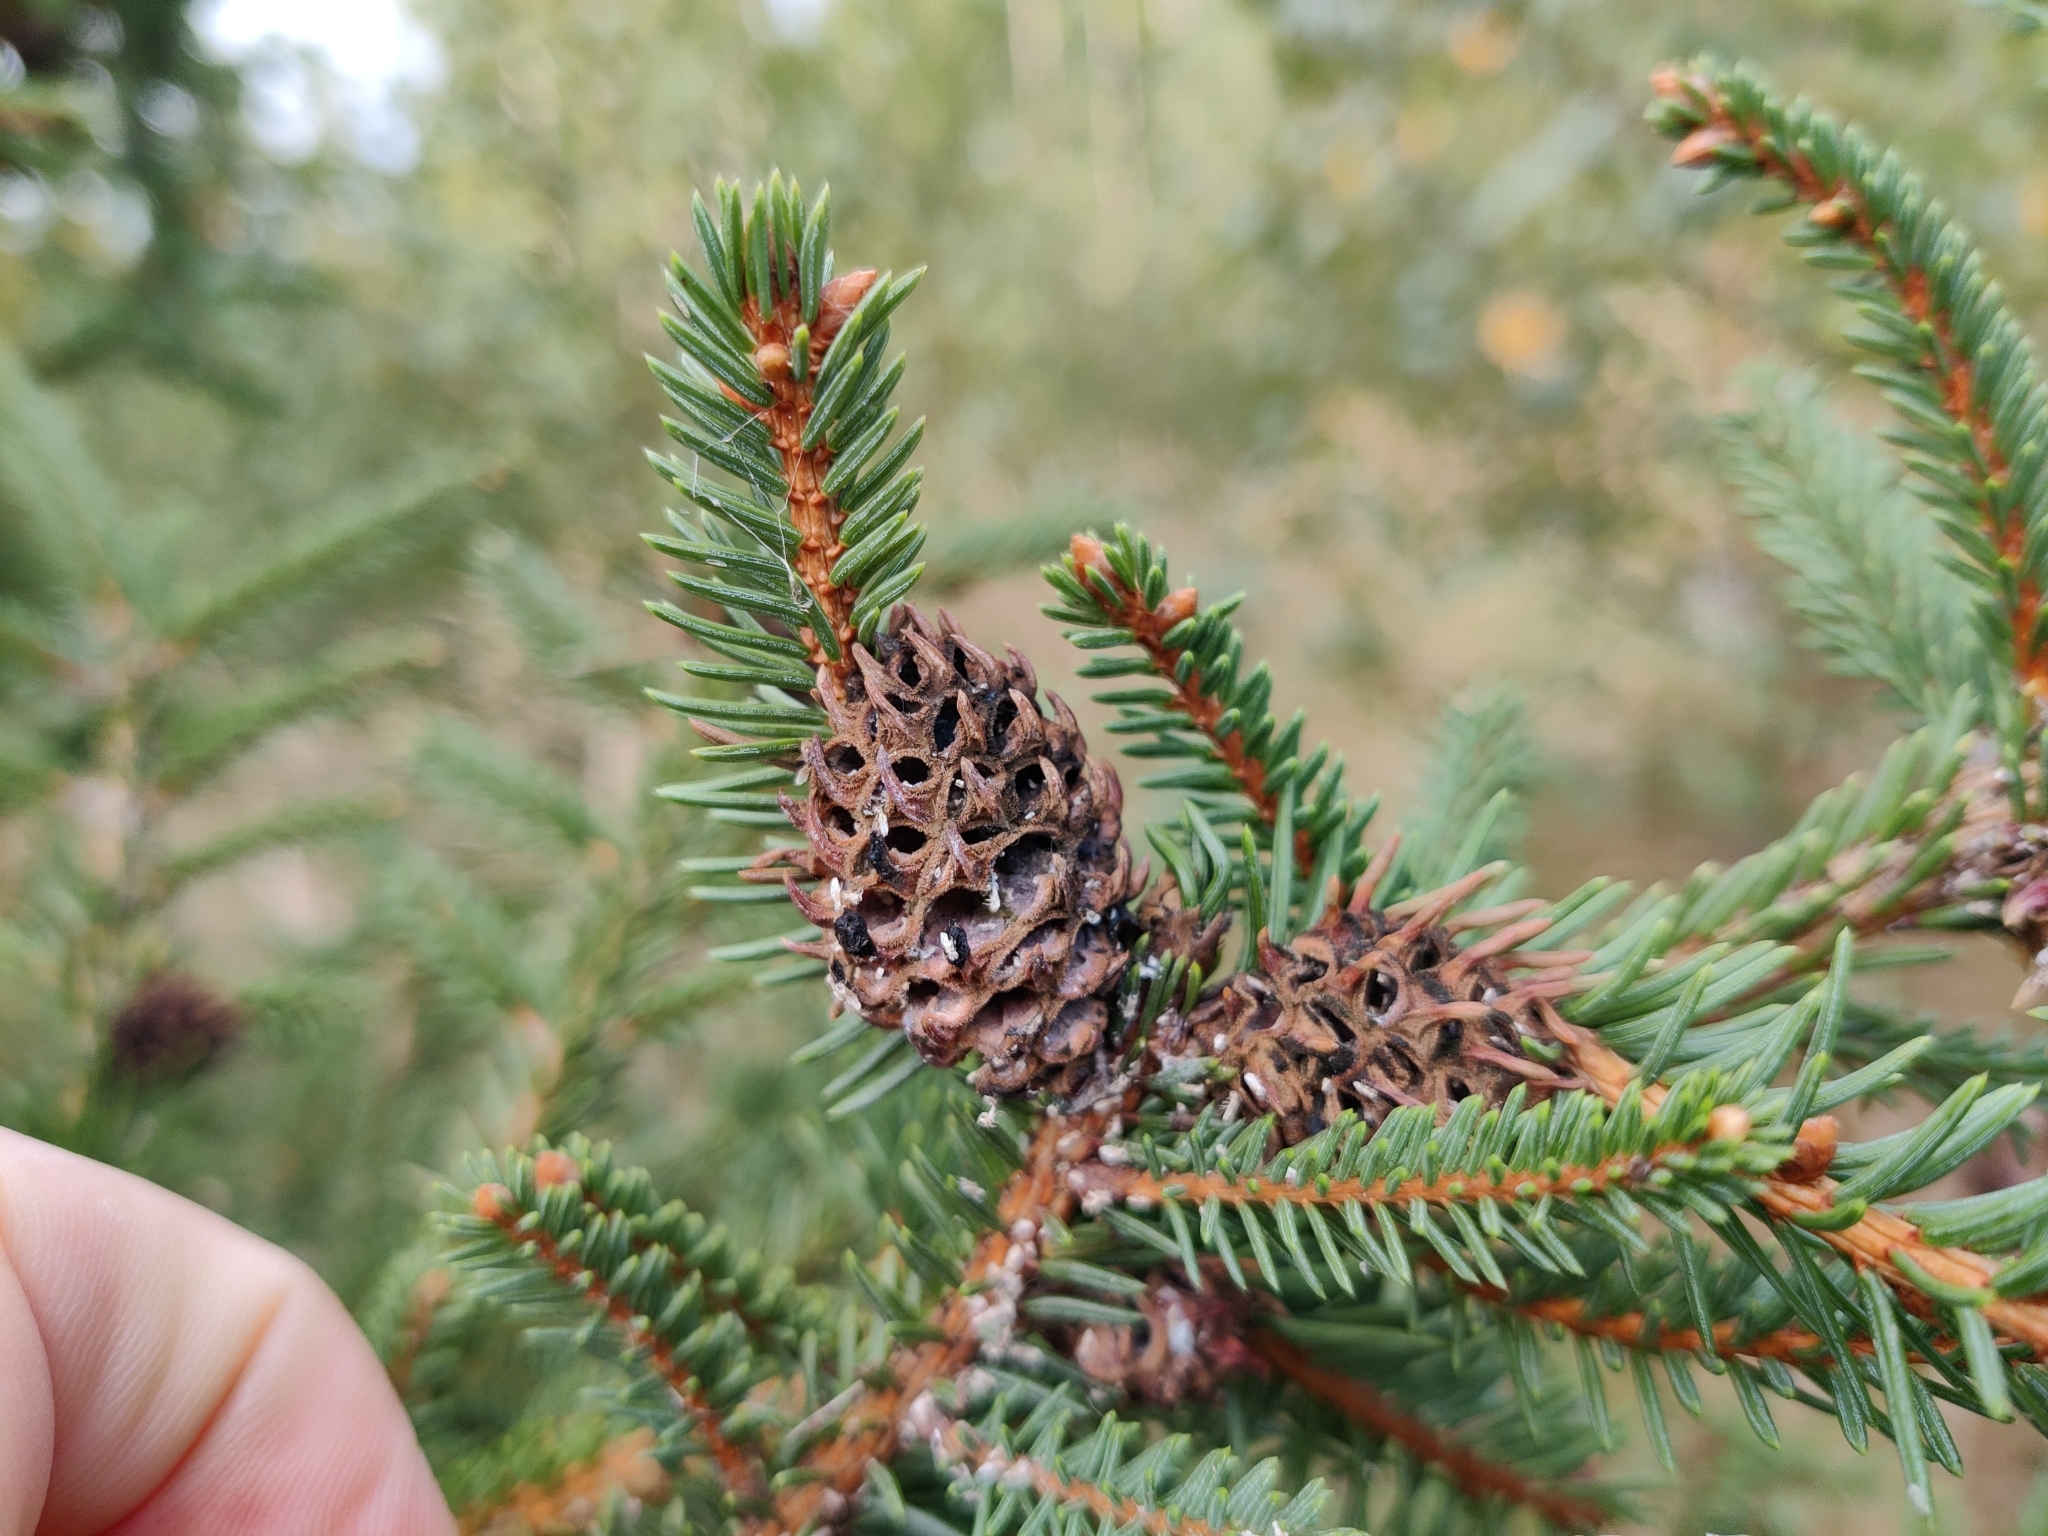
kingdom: Animalia
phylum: Arthropoda
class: Insecta
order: Hemiptera
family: Adelgidae
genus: Adelges
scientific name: Adelges abietis
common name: Eastern spruce gall adelgid
